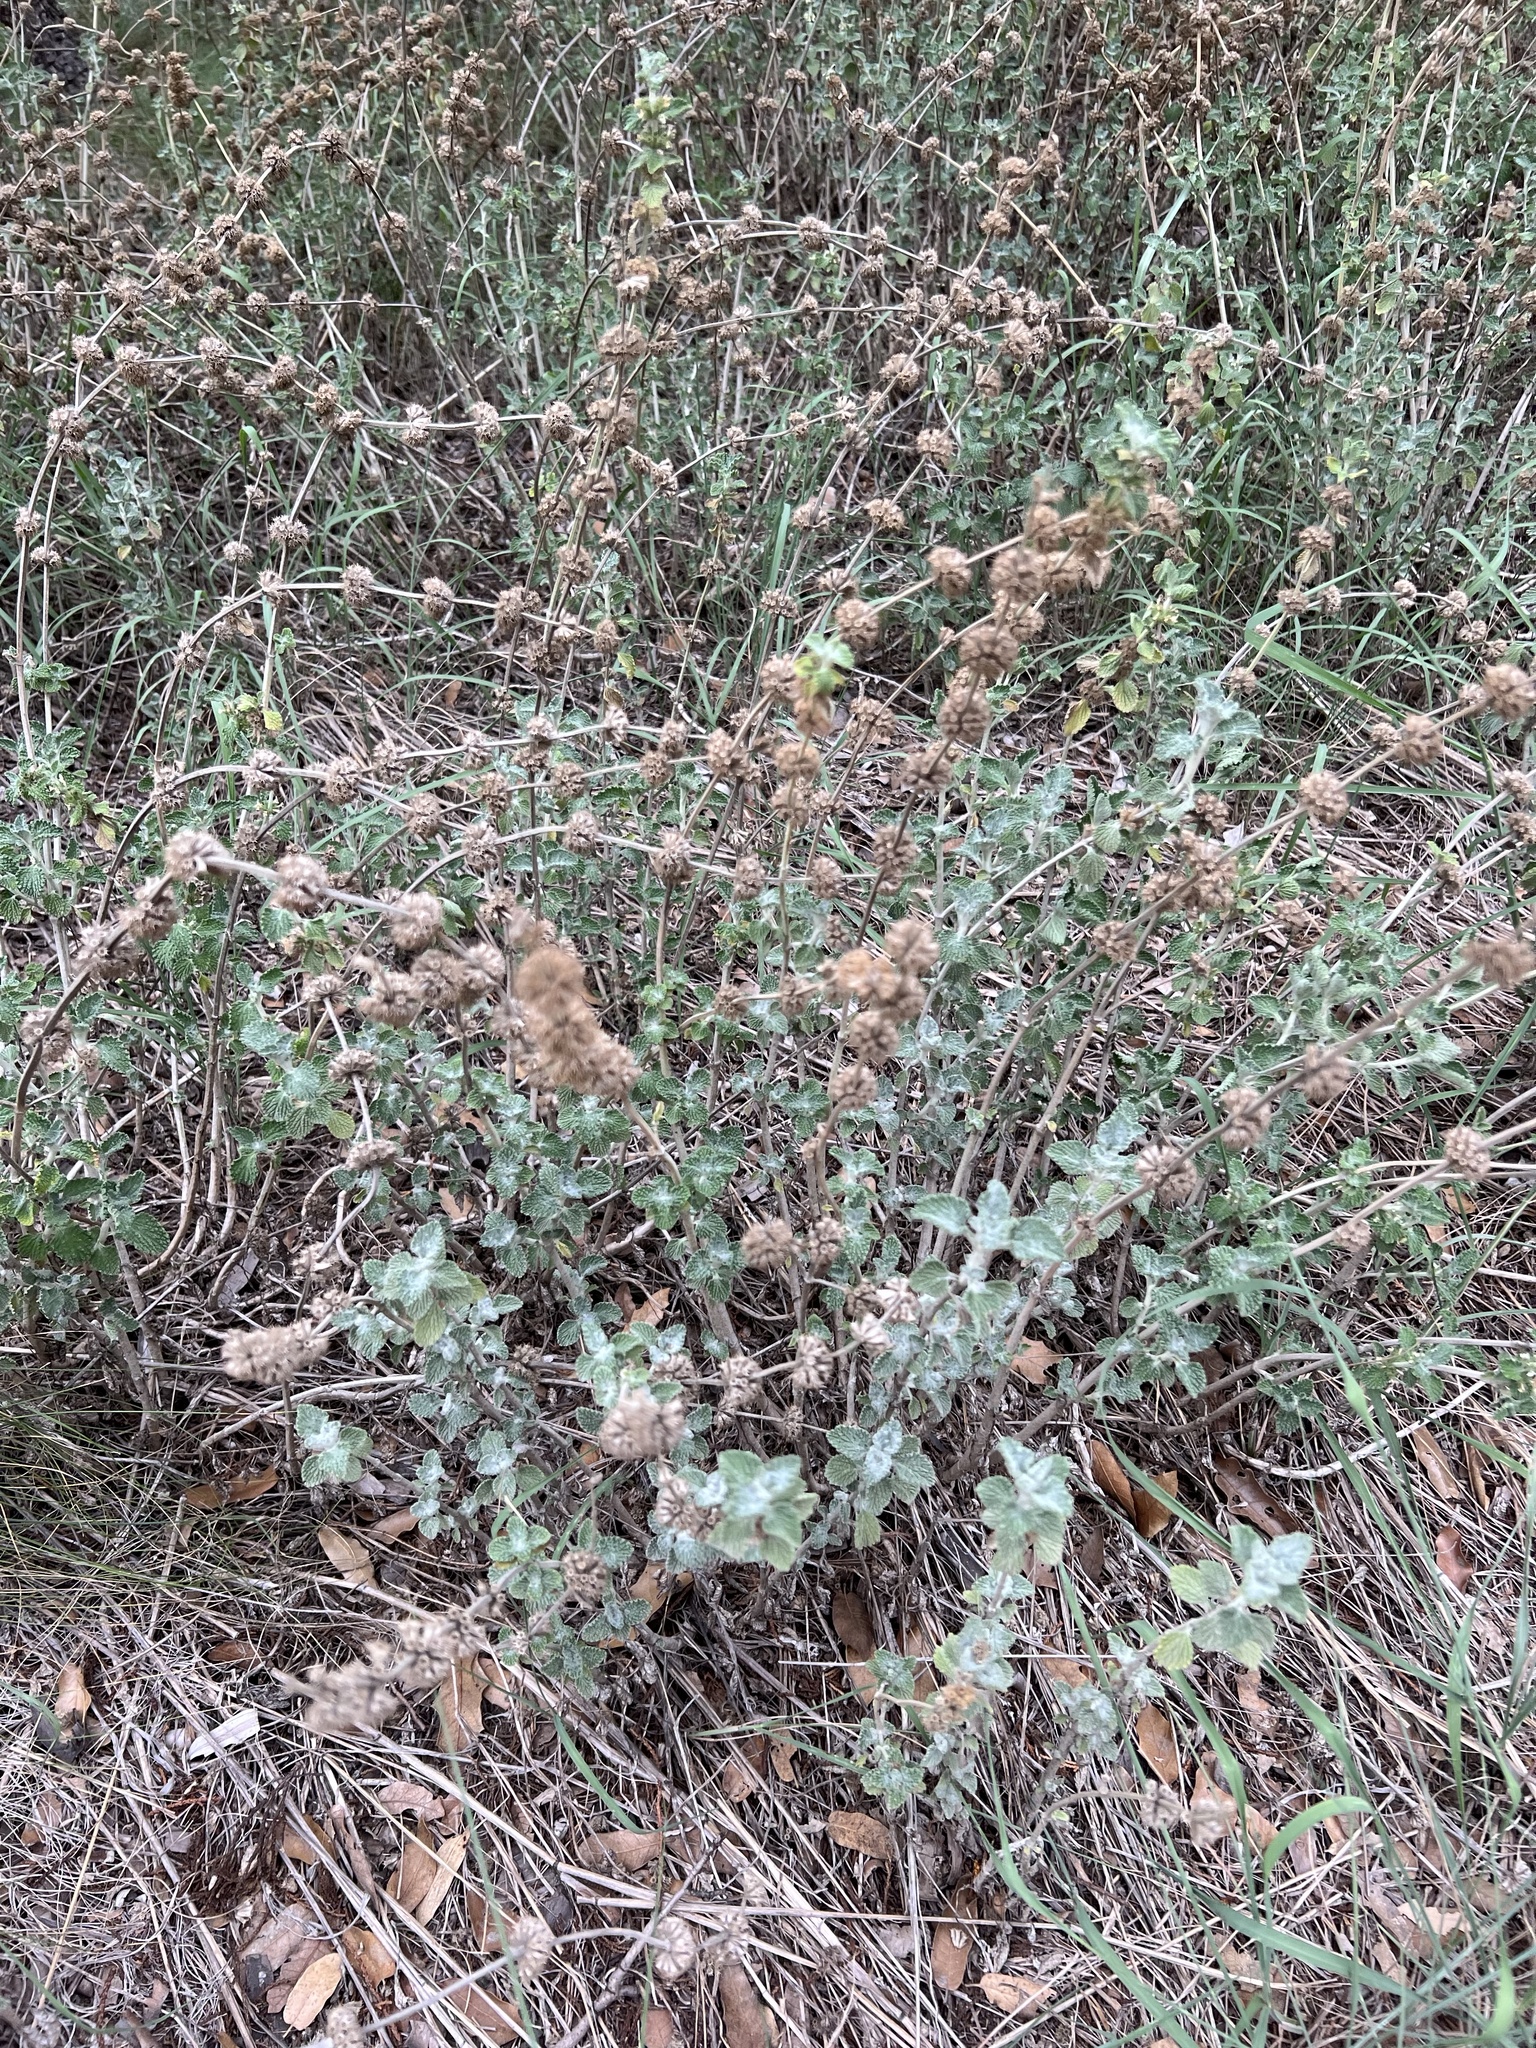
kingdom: Plantae
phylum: Tracheophyta
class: Magnoliopsida
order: Lamiales
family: Lamiaceae
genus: Marrubium
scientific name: Marrubium vulgare
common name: Horehound
